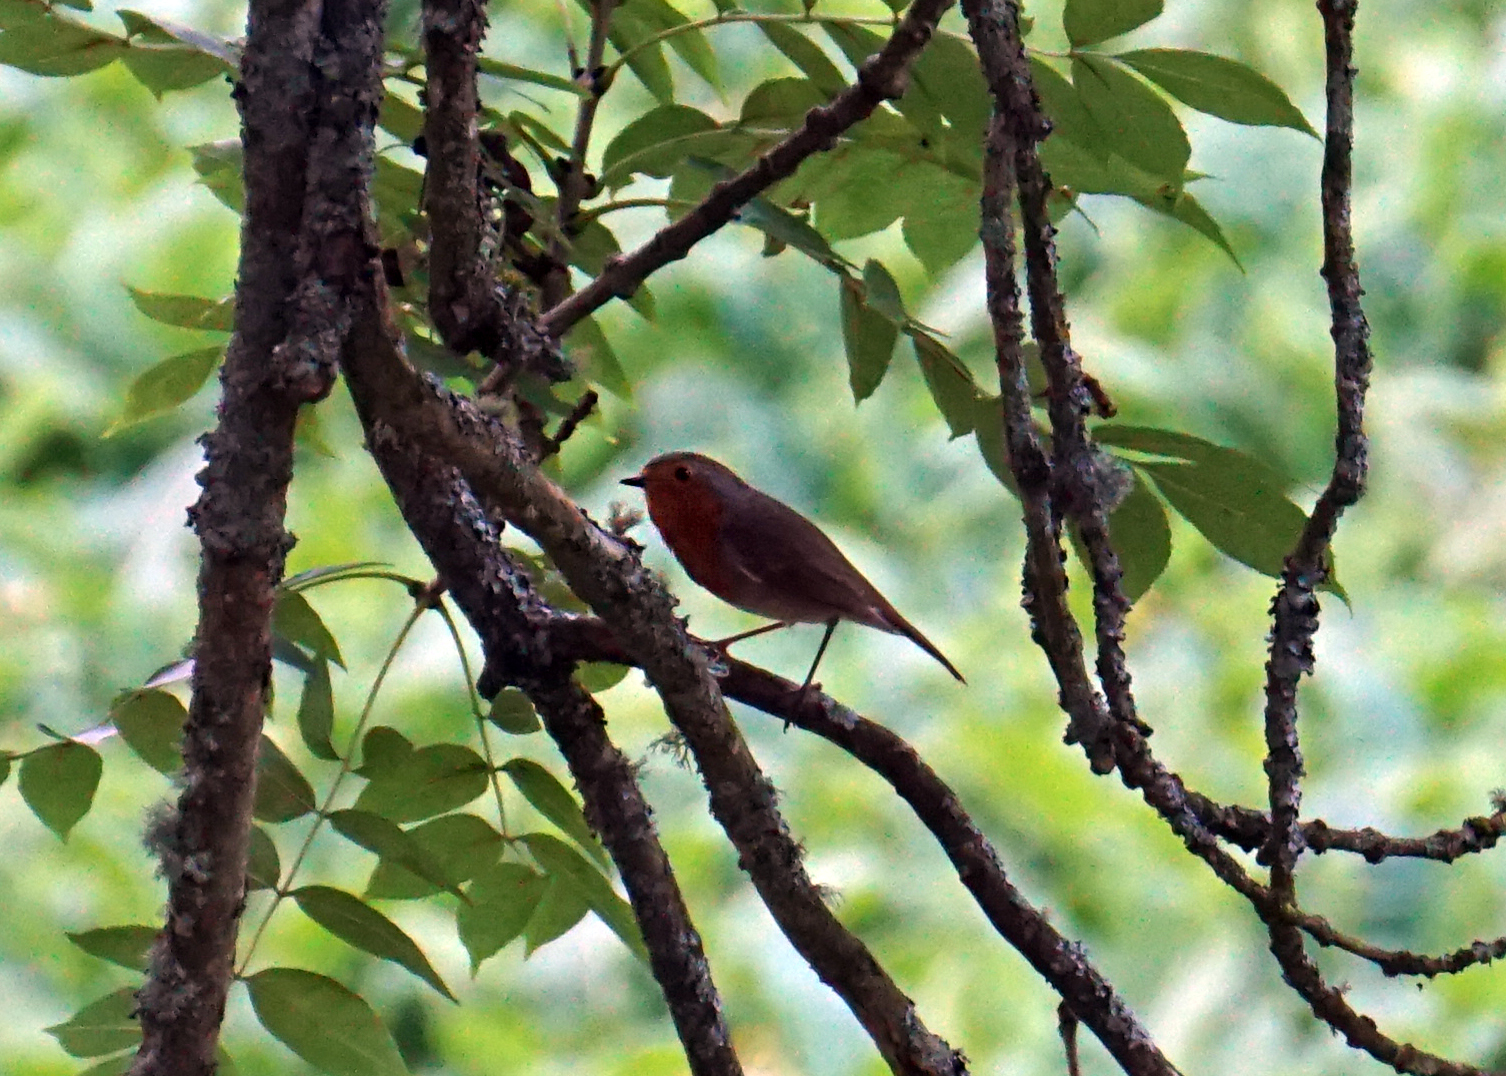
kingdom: Animalia
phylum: Chordata
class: Aves
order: Passeriformes
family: Muscicapidae
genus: Erithacus
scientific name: Erithacus rubecula
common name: European robin
